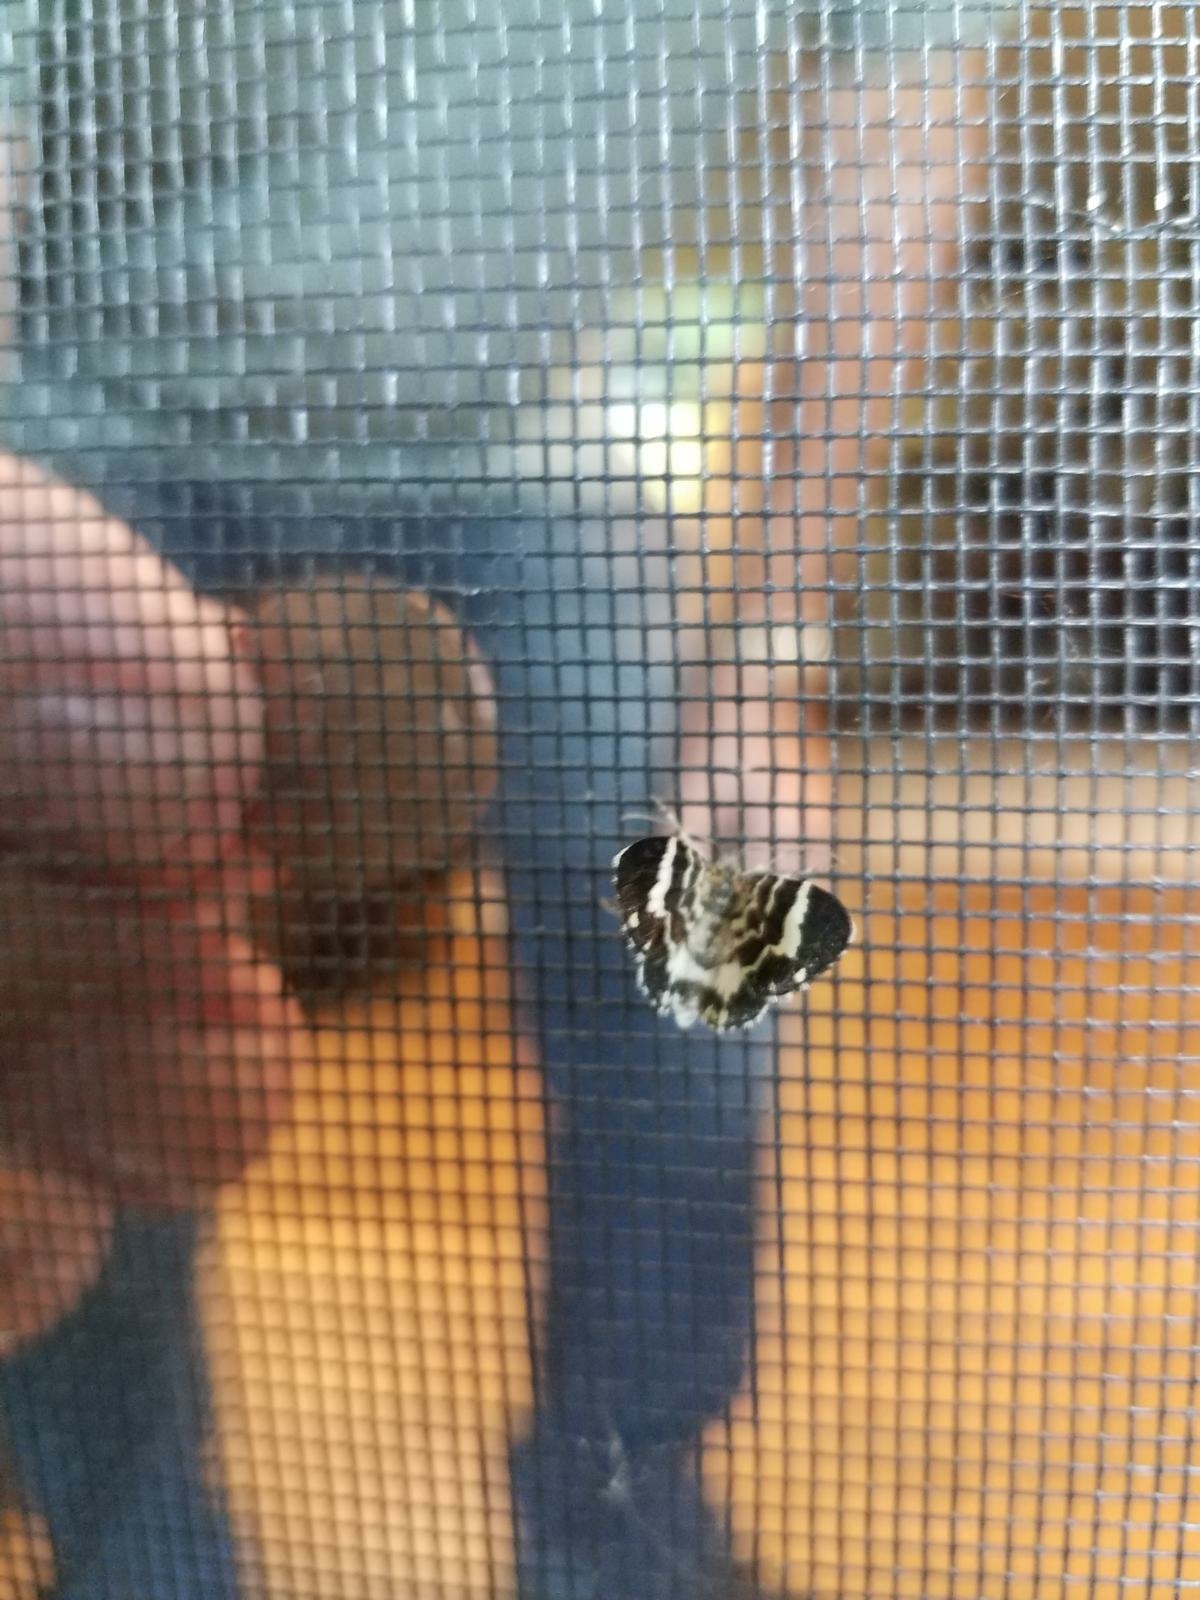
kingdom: Animalia
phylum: Arthropoda
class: Insecta
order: Lepidoptera
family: Geometridae
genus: Trichodezia
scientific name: Trichodezia californiata
